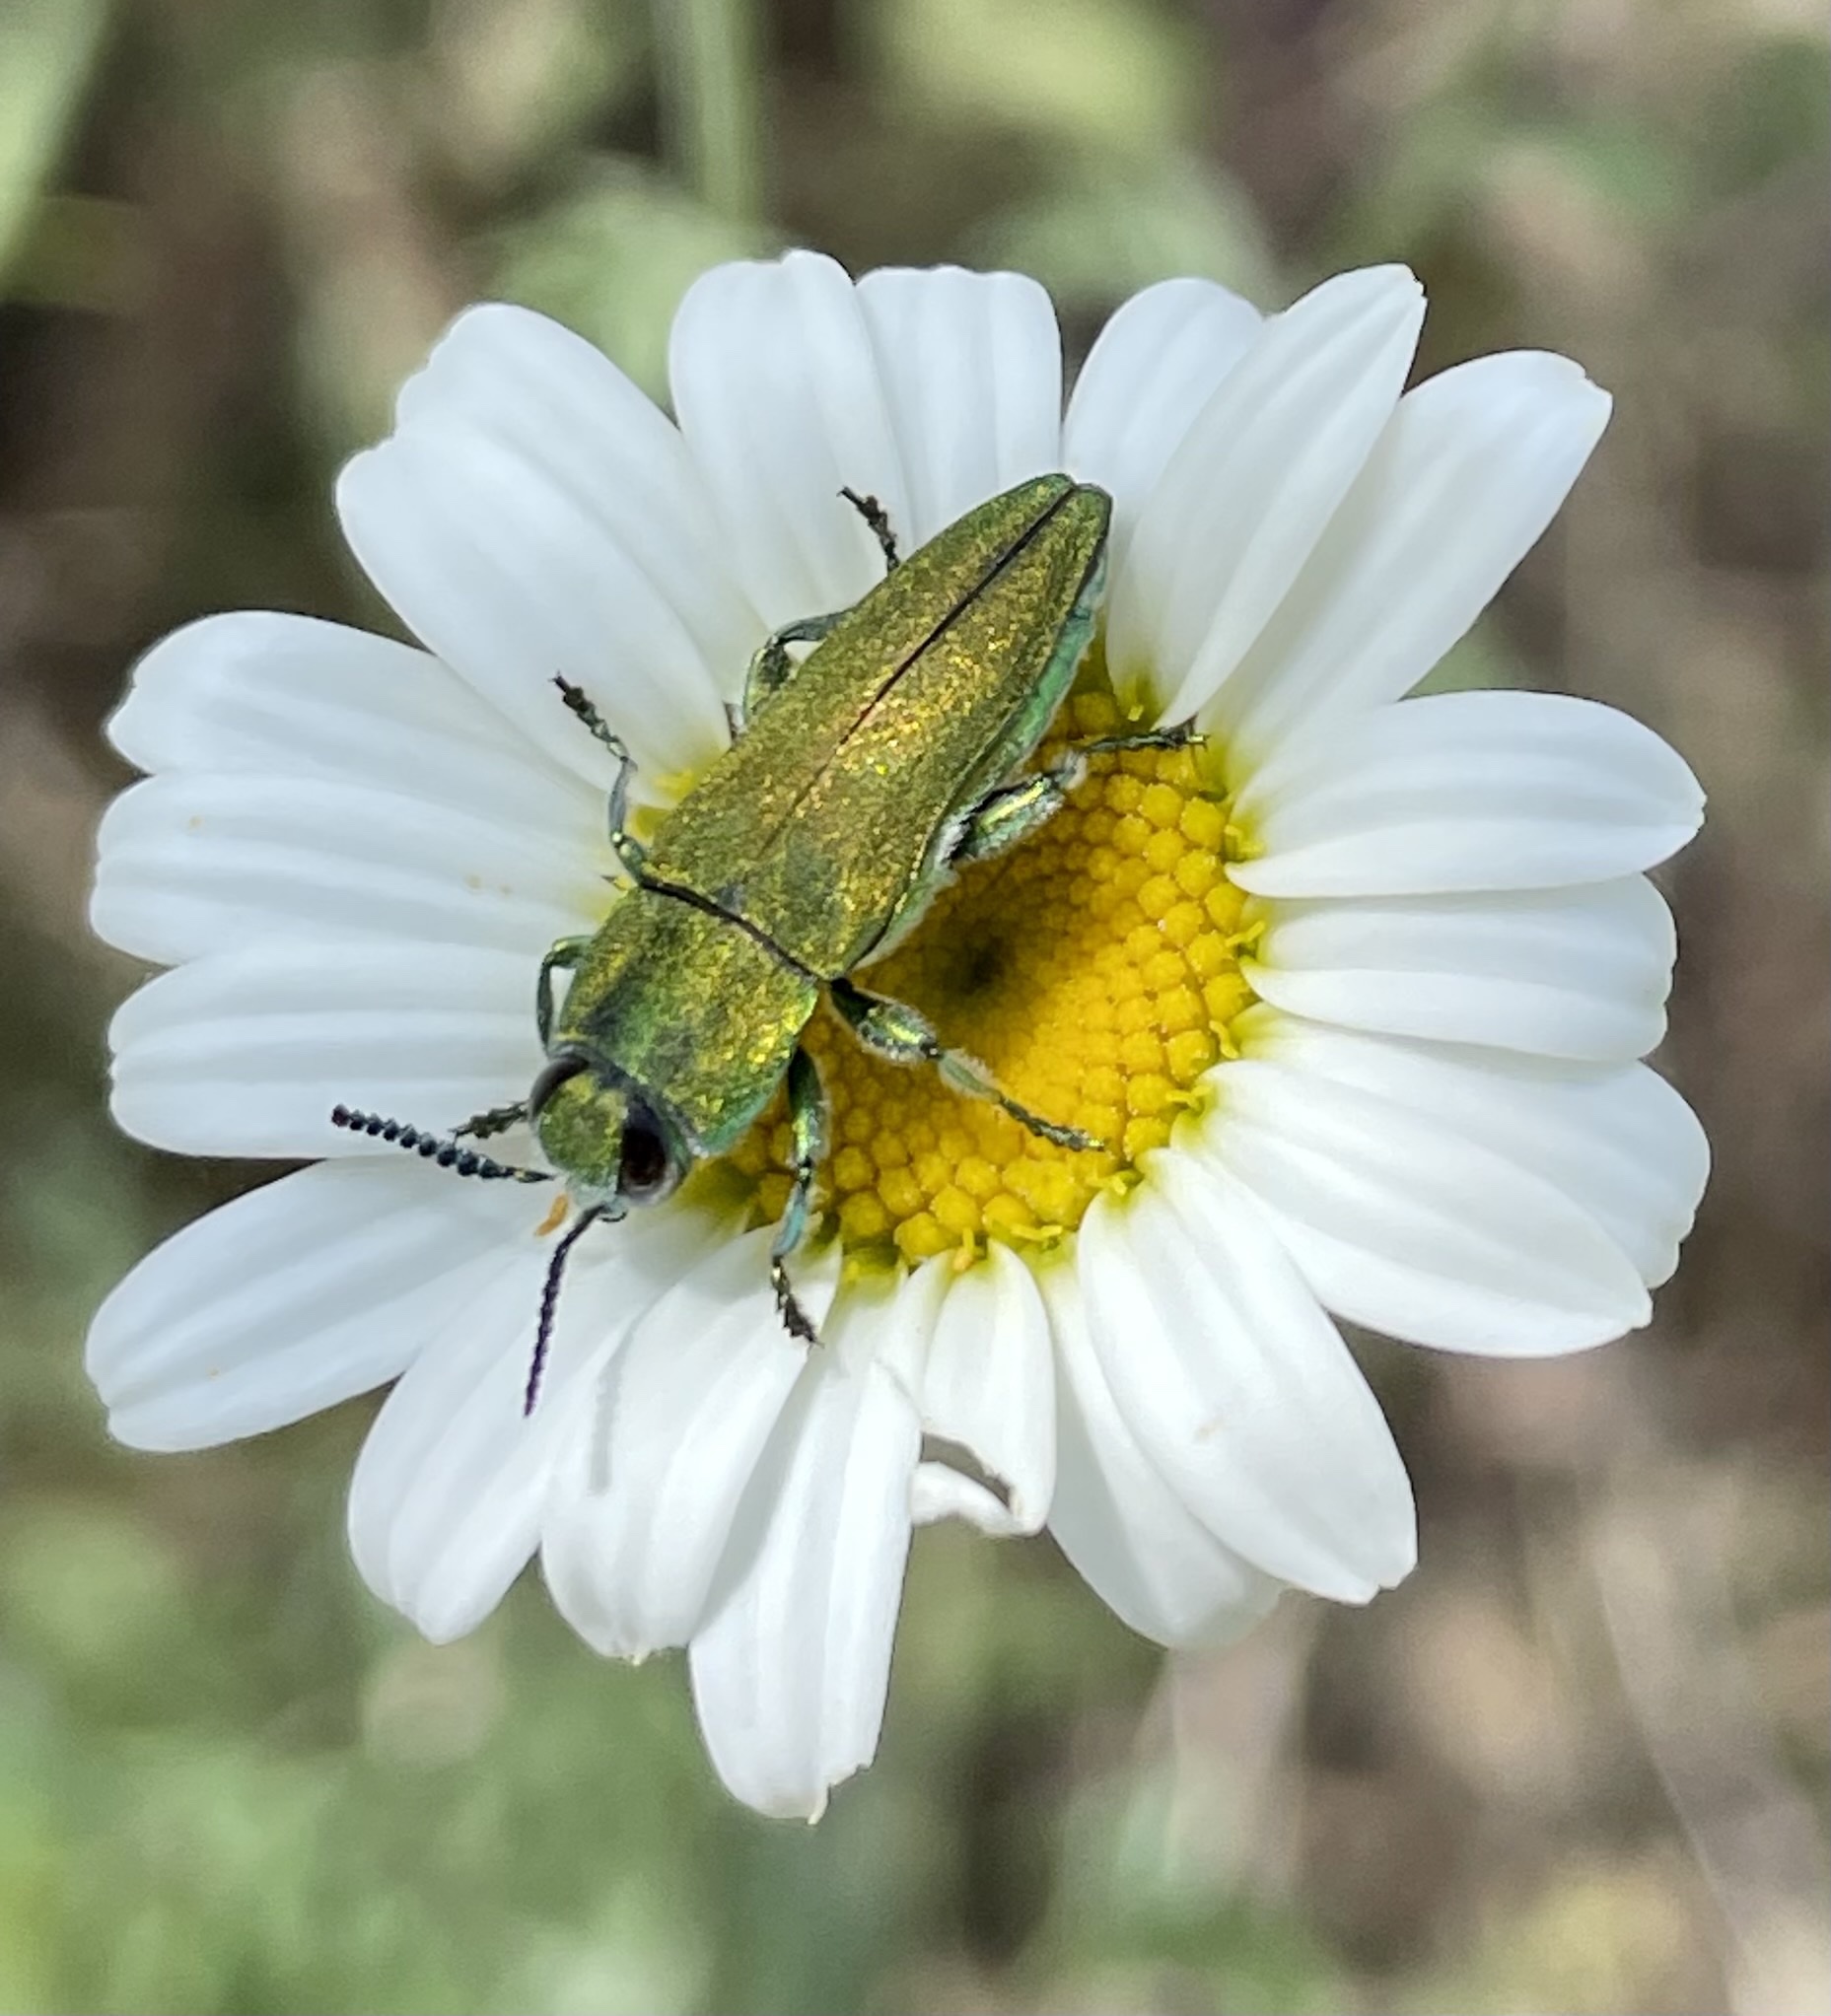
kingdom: Animalia
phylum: Arthropoda
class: Insecta
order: Coleoptera
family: Buprestidae
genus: Anthaxia
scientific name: Anthaxia hungarica
